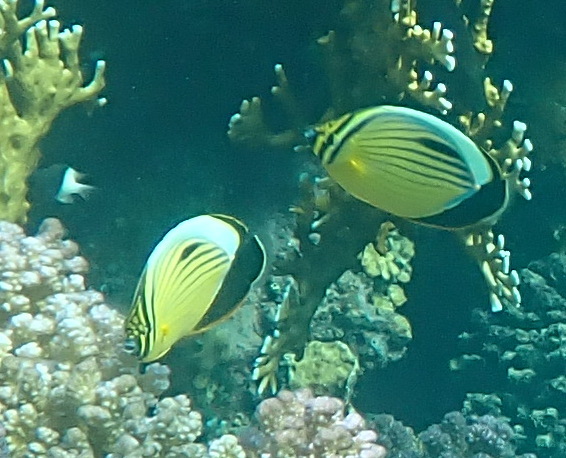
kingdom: Animalia
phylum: Chordata
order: Perciformes
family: Chaetodontidae
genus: Chaetodon
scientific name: Chaetodon austriacus
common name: Exquisite butterflyfish
